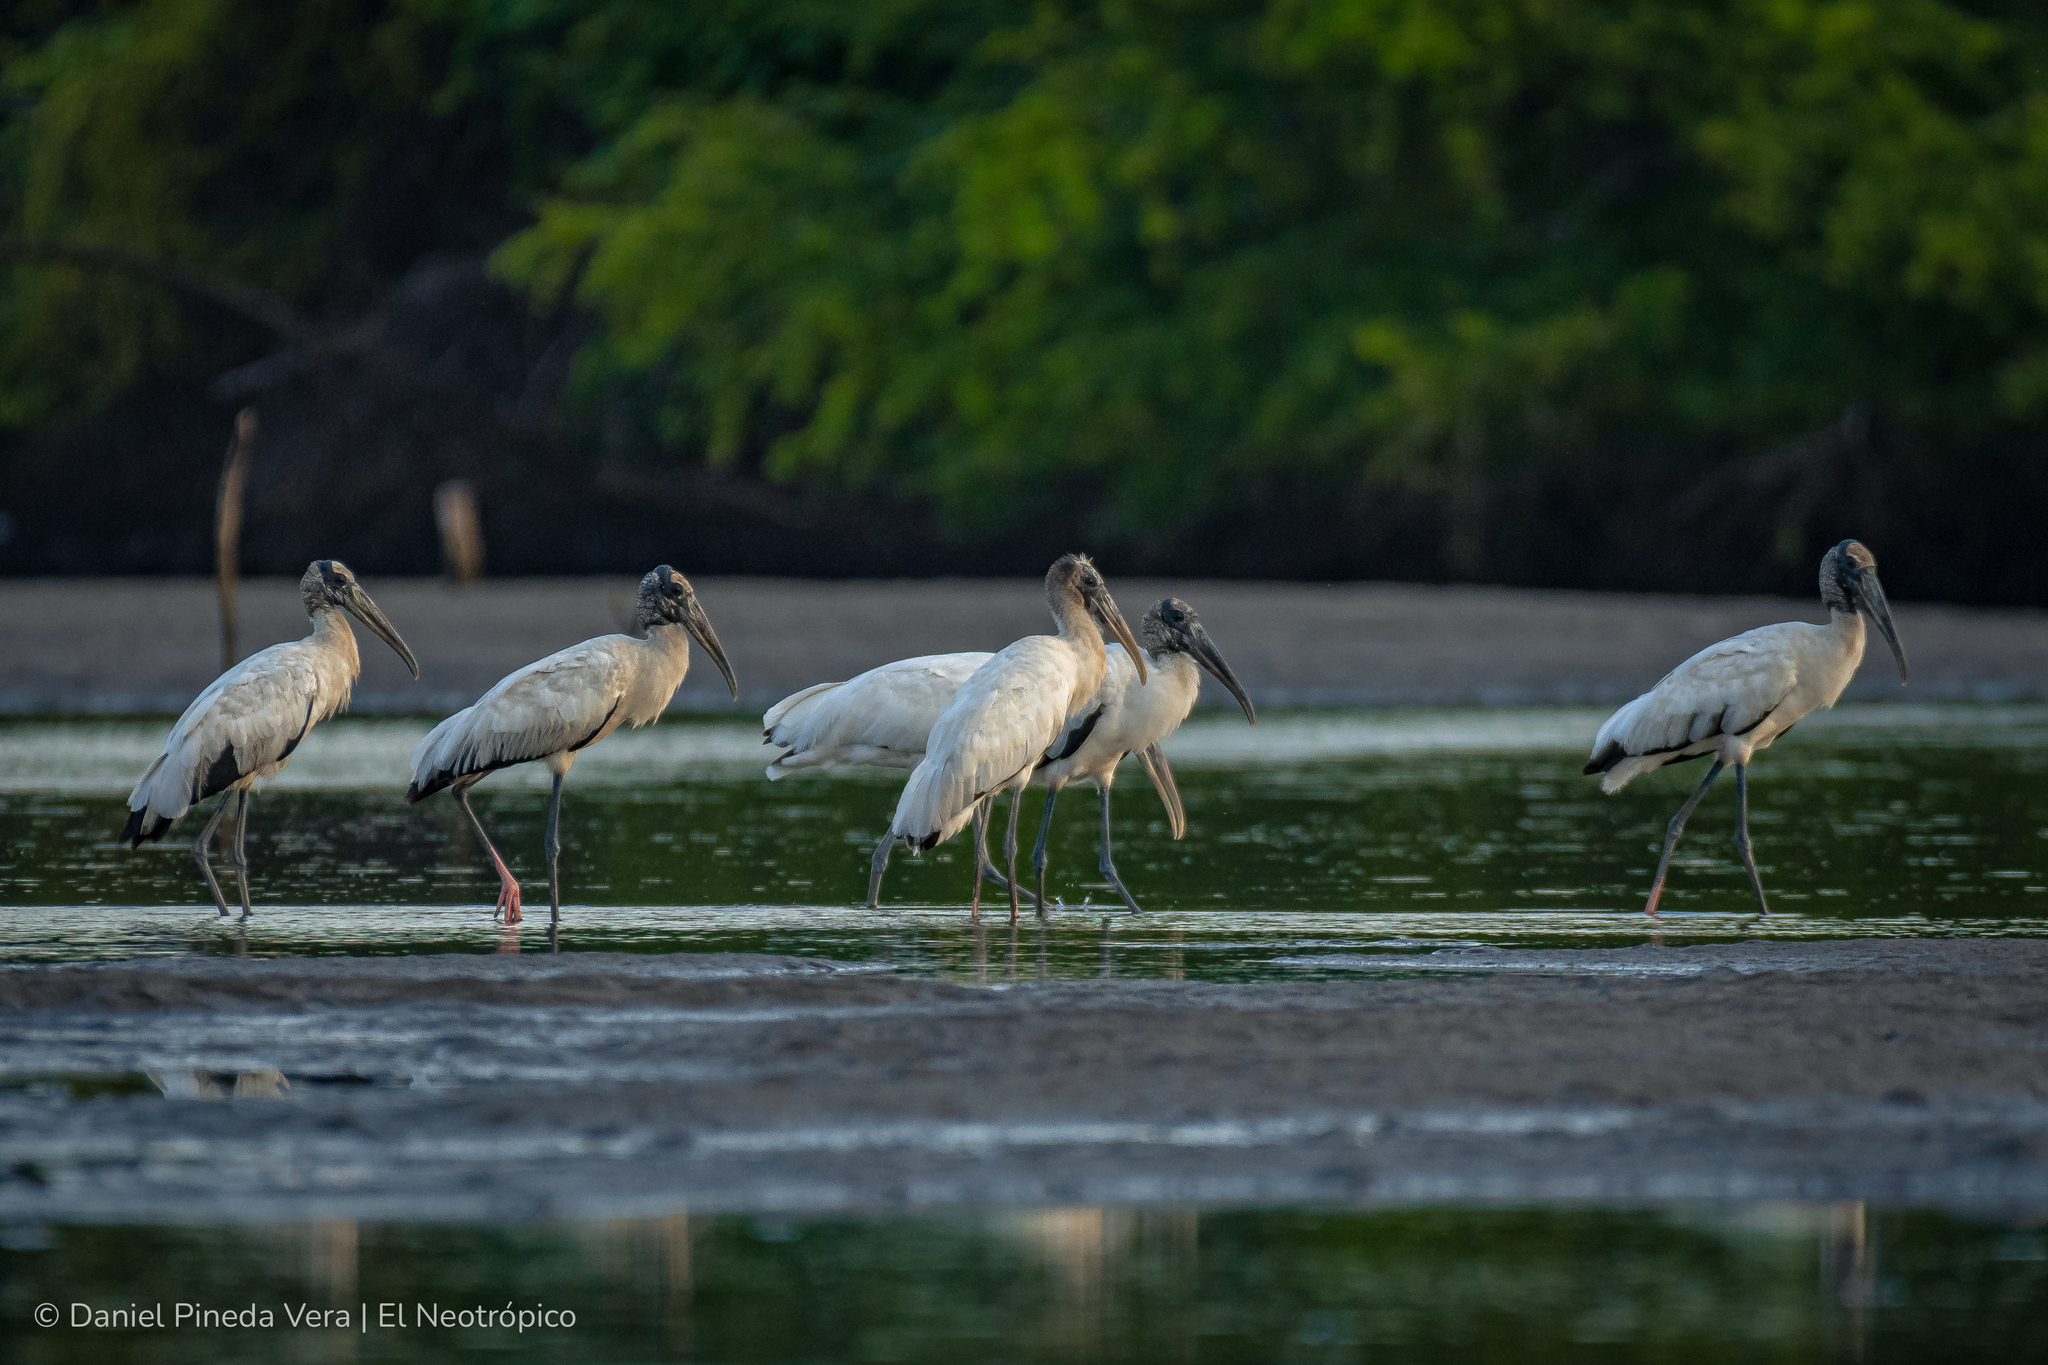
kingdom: Animalia
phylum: Chordata
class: Aves
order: Ciconiiformes
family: Ciconiidae
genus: Mycteria
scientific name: Mycteria americana
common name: Wood stork
